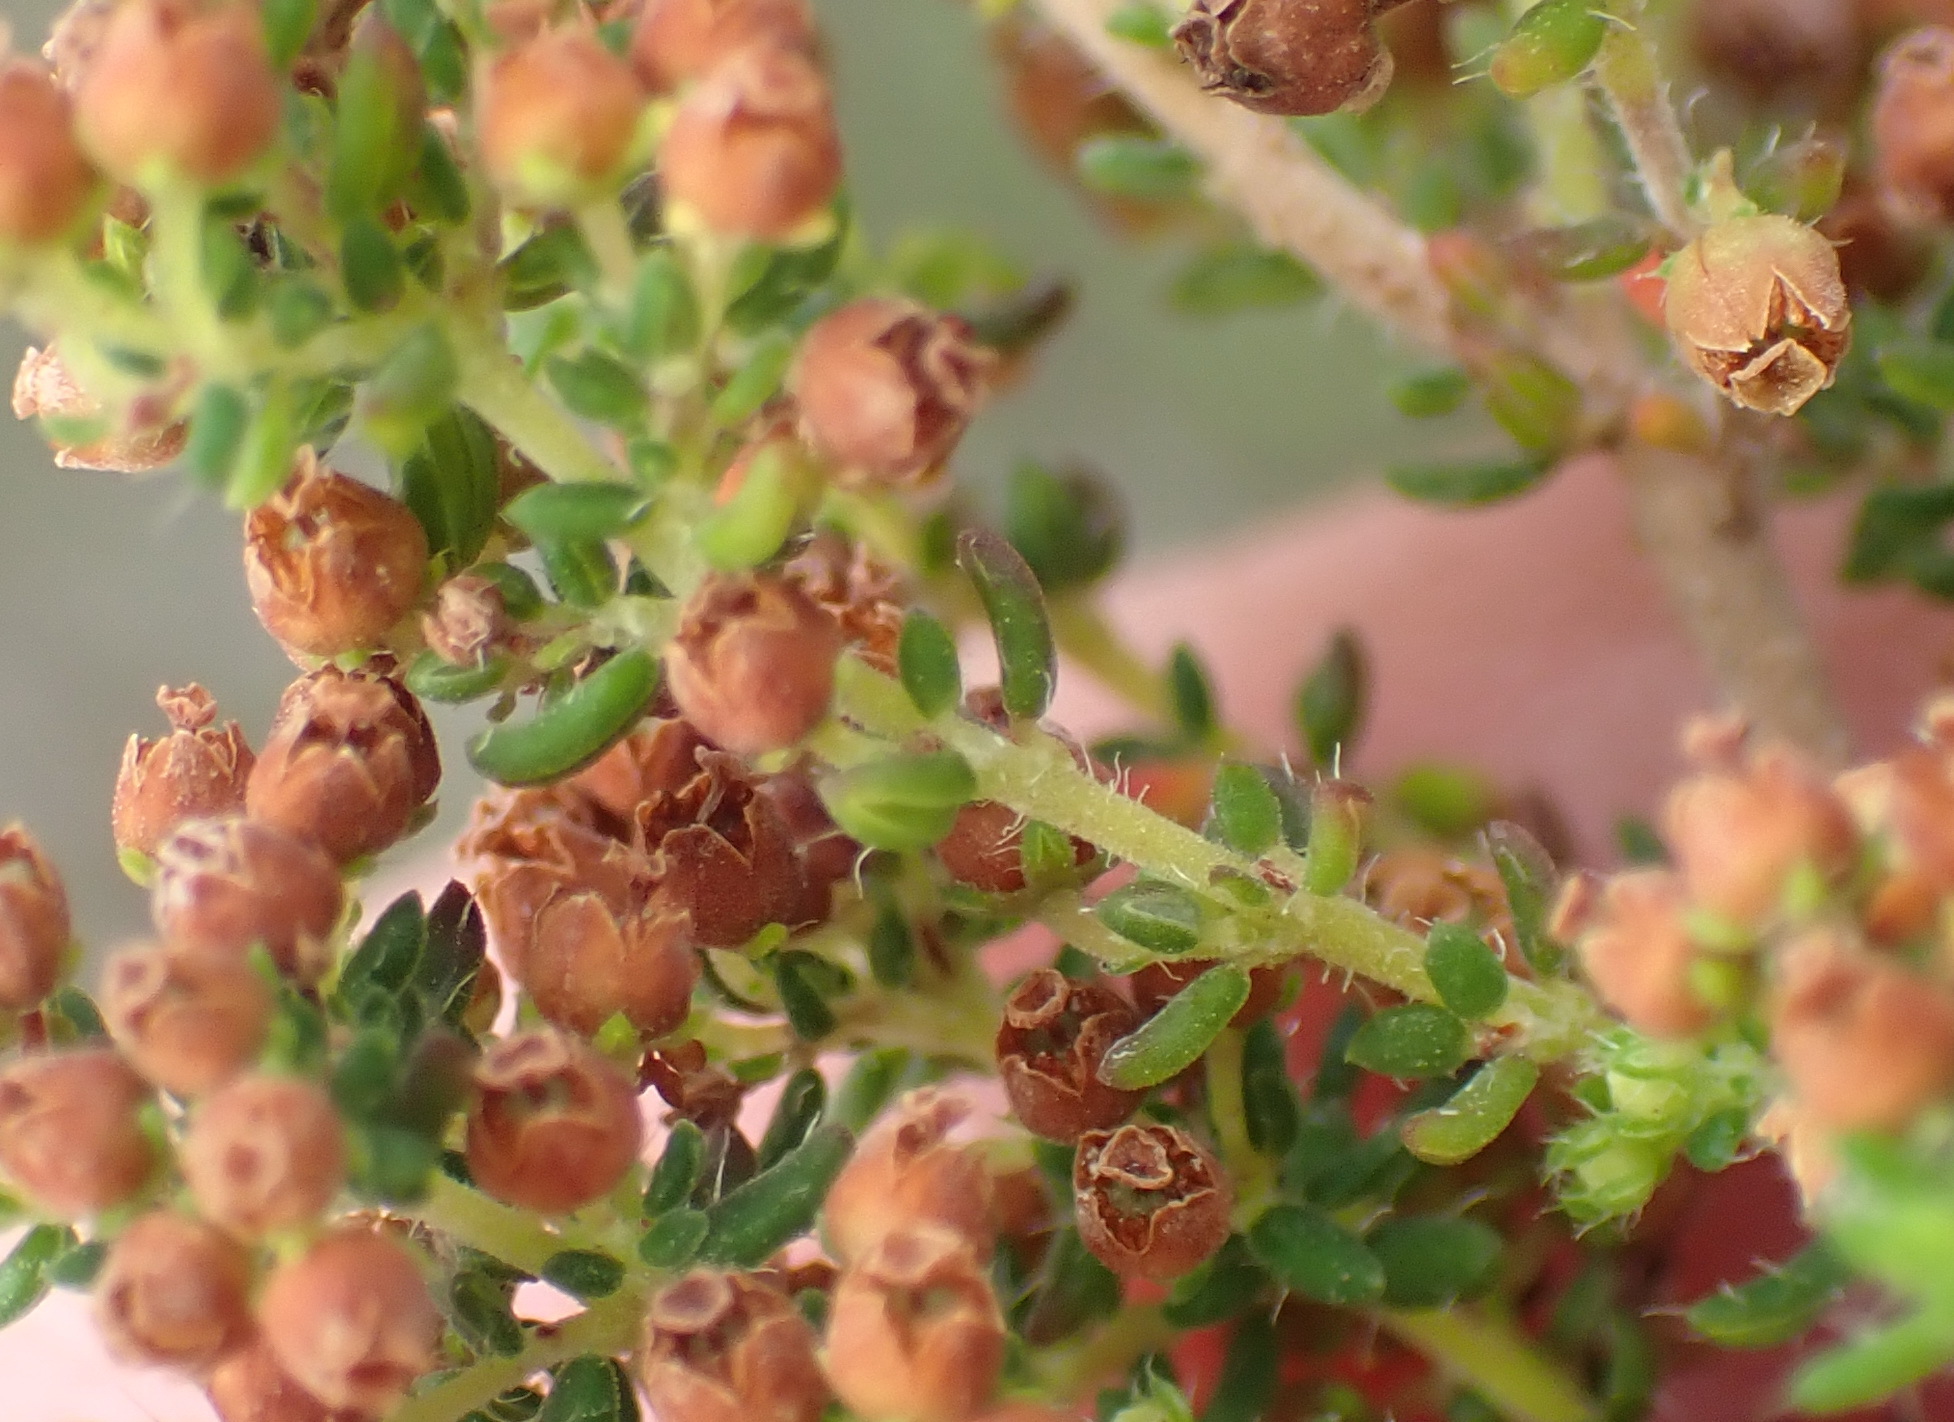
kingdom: Plantae
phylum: Tracheophyta
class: Magnoliopsida
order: Ericales
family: Ericaceae
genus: Erica
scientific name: Erica leucopelta
